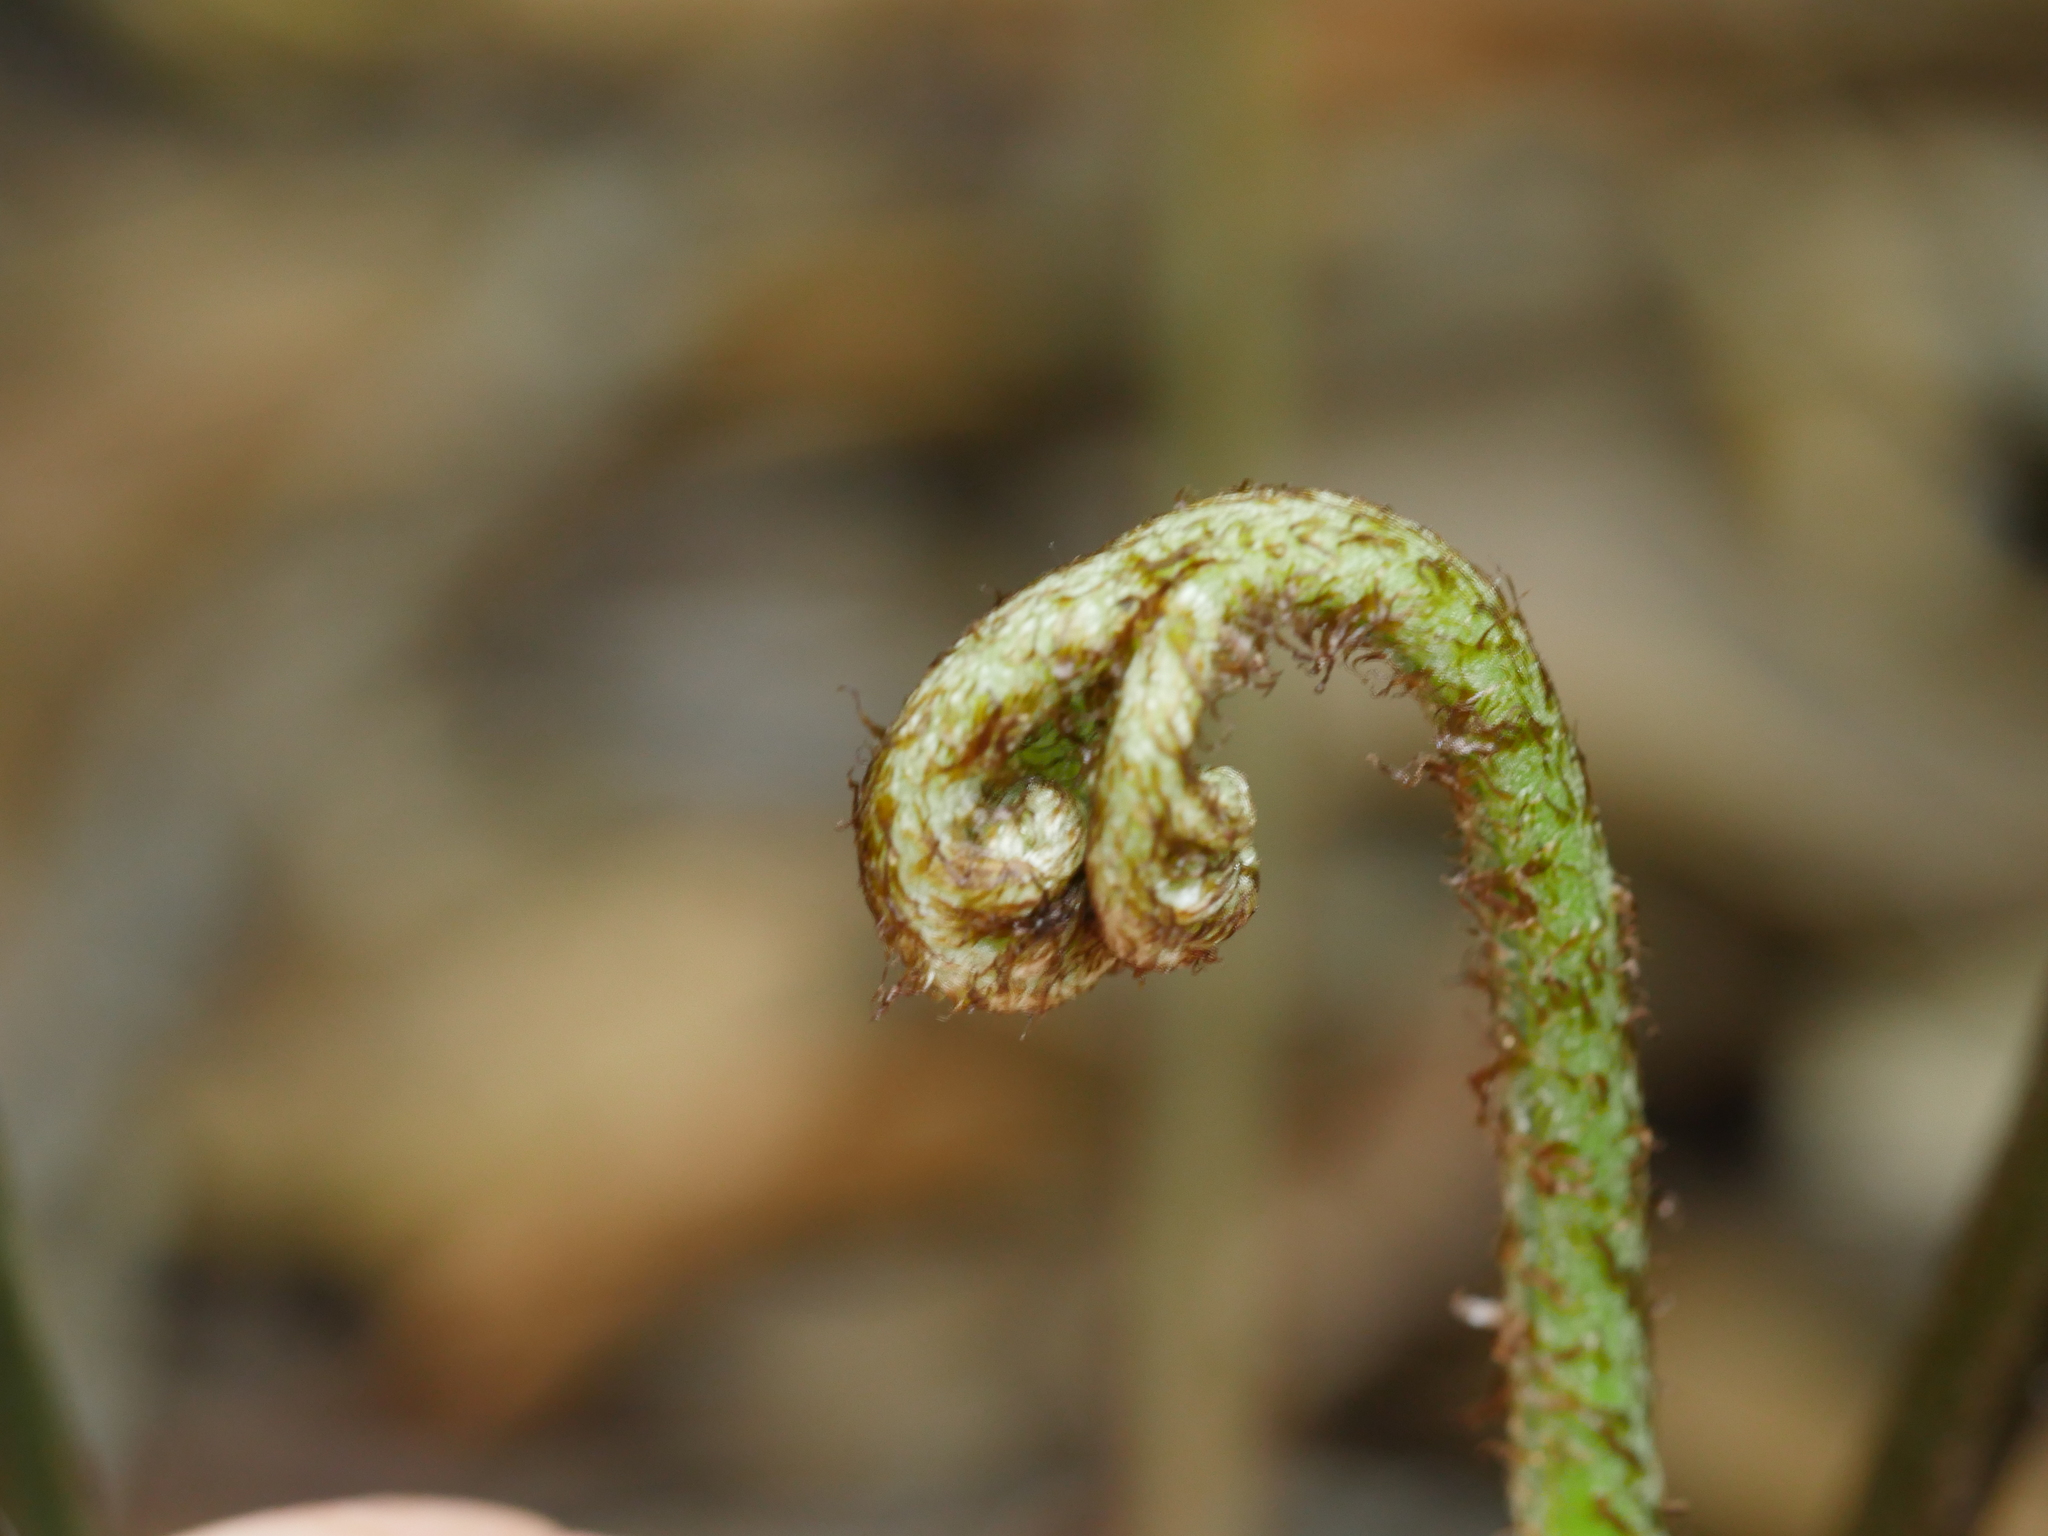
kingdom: Plantae
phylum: Tracheophyta
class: Polypodiopsida
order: Polypodiales
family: Pteridaceae
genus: Pteris
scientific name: Pteris macilenta
